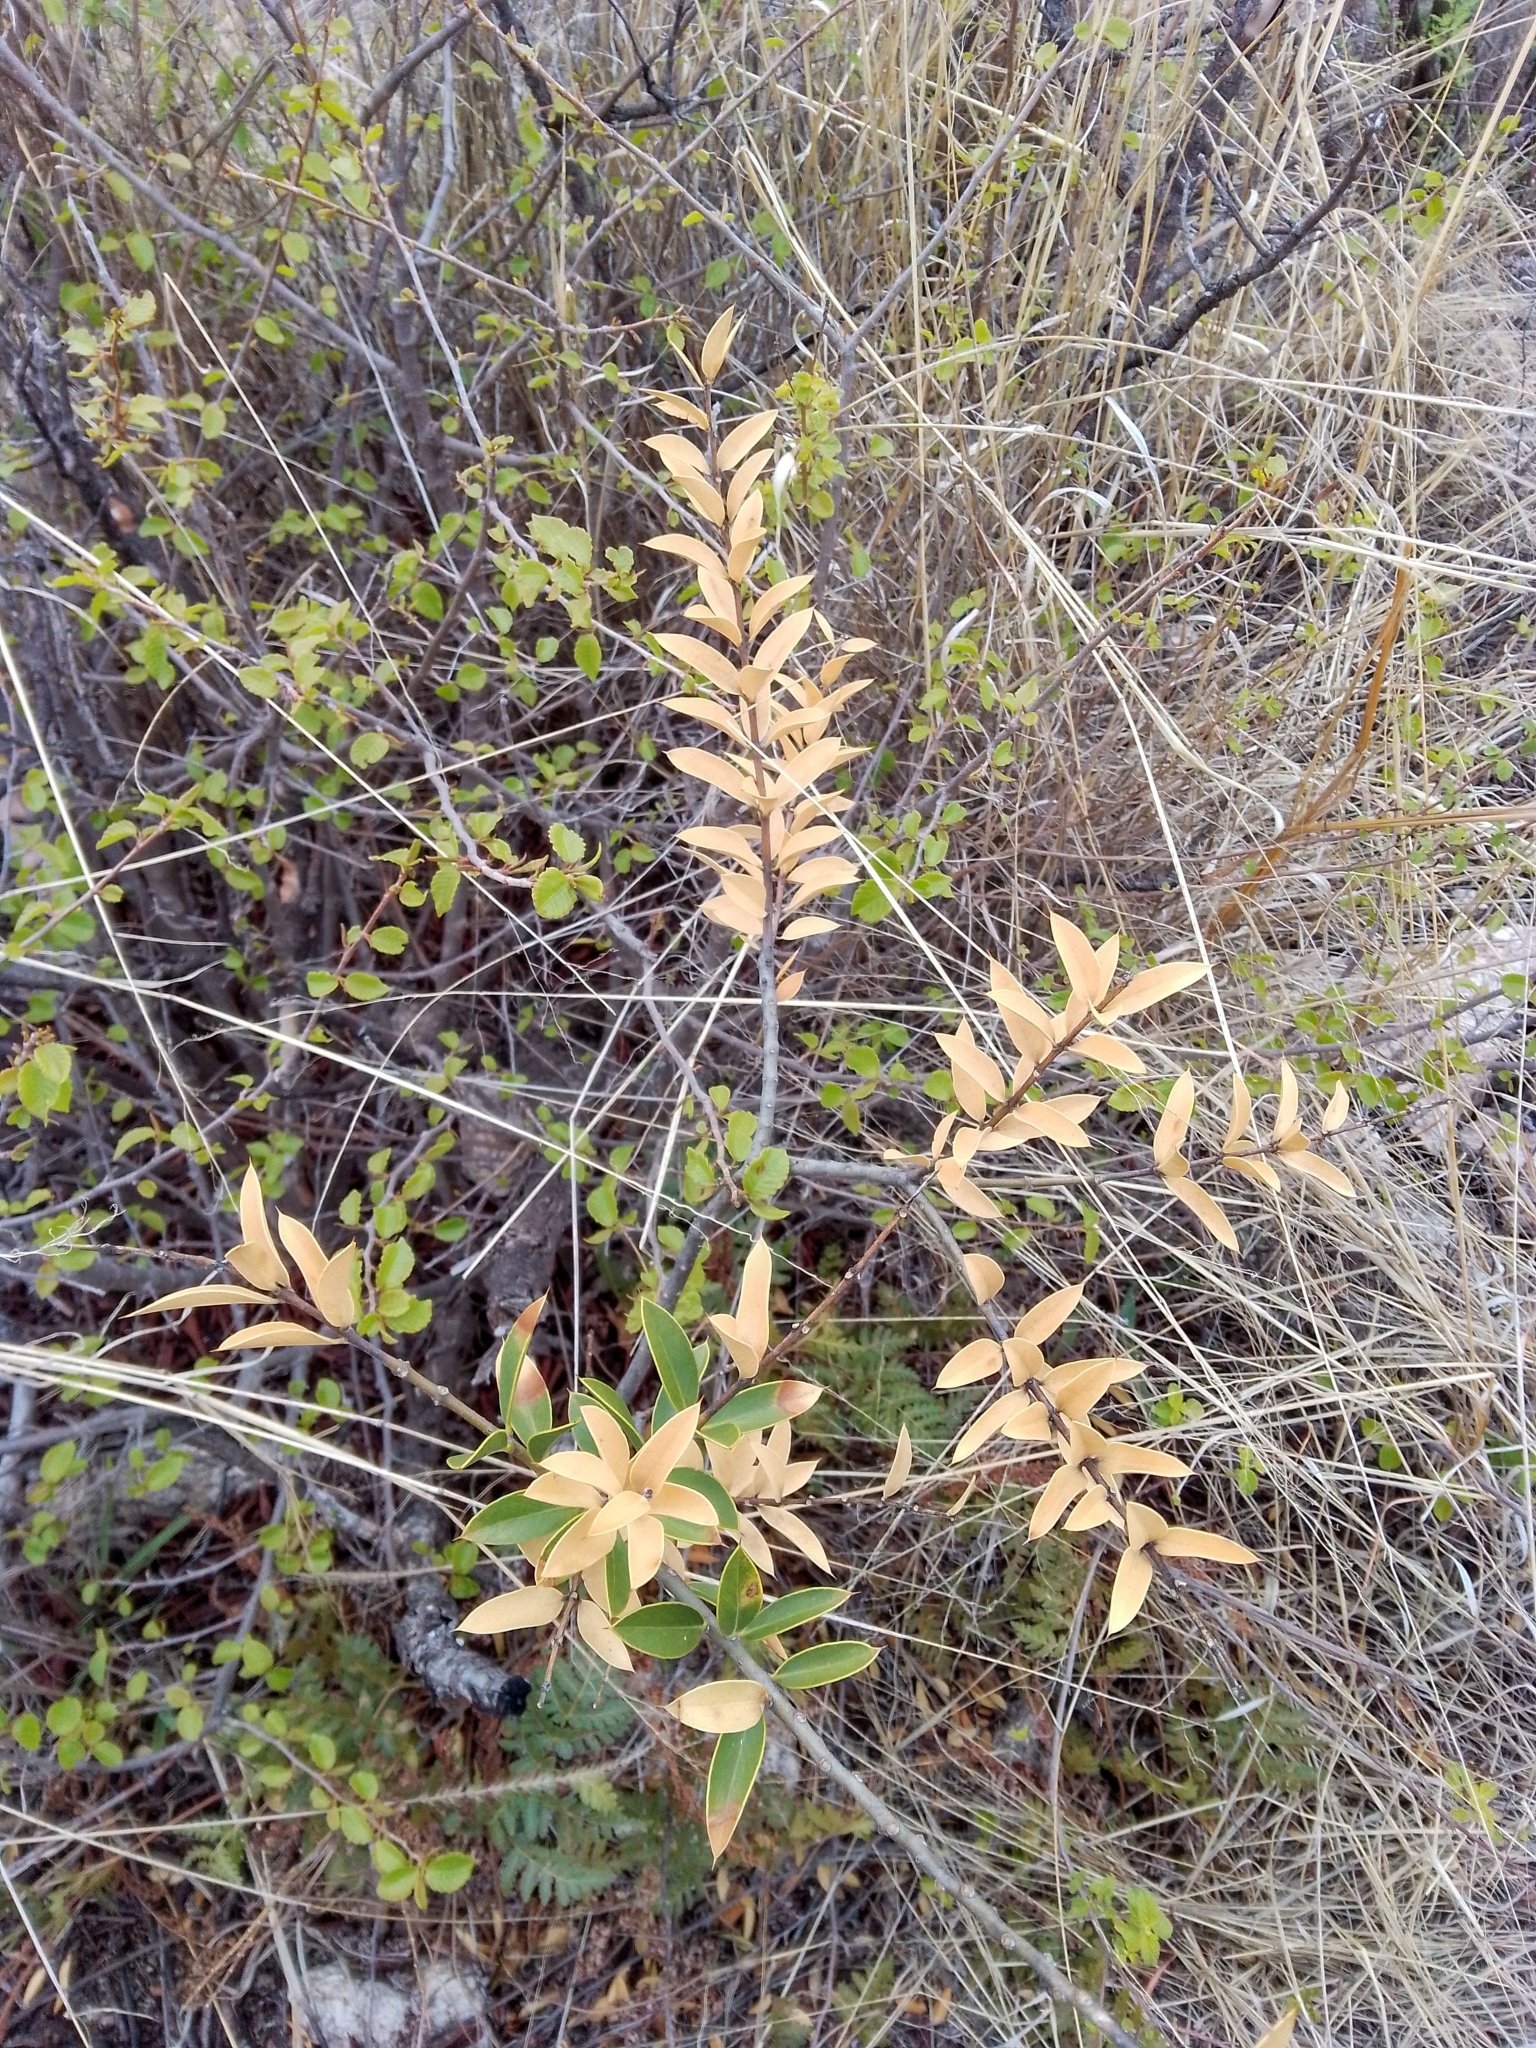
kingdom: Plantae
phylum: Tracheophyta
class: Magnoliopsida
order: Gentianales
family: Apocynaceae
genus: Aspidosperma
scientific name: Aspidosperma quebracho-blanco
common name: White quebracho
